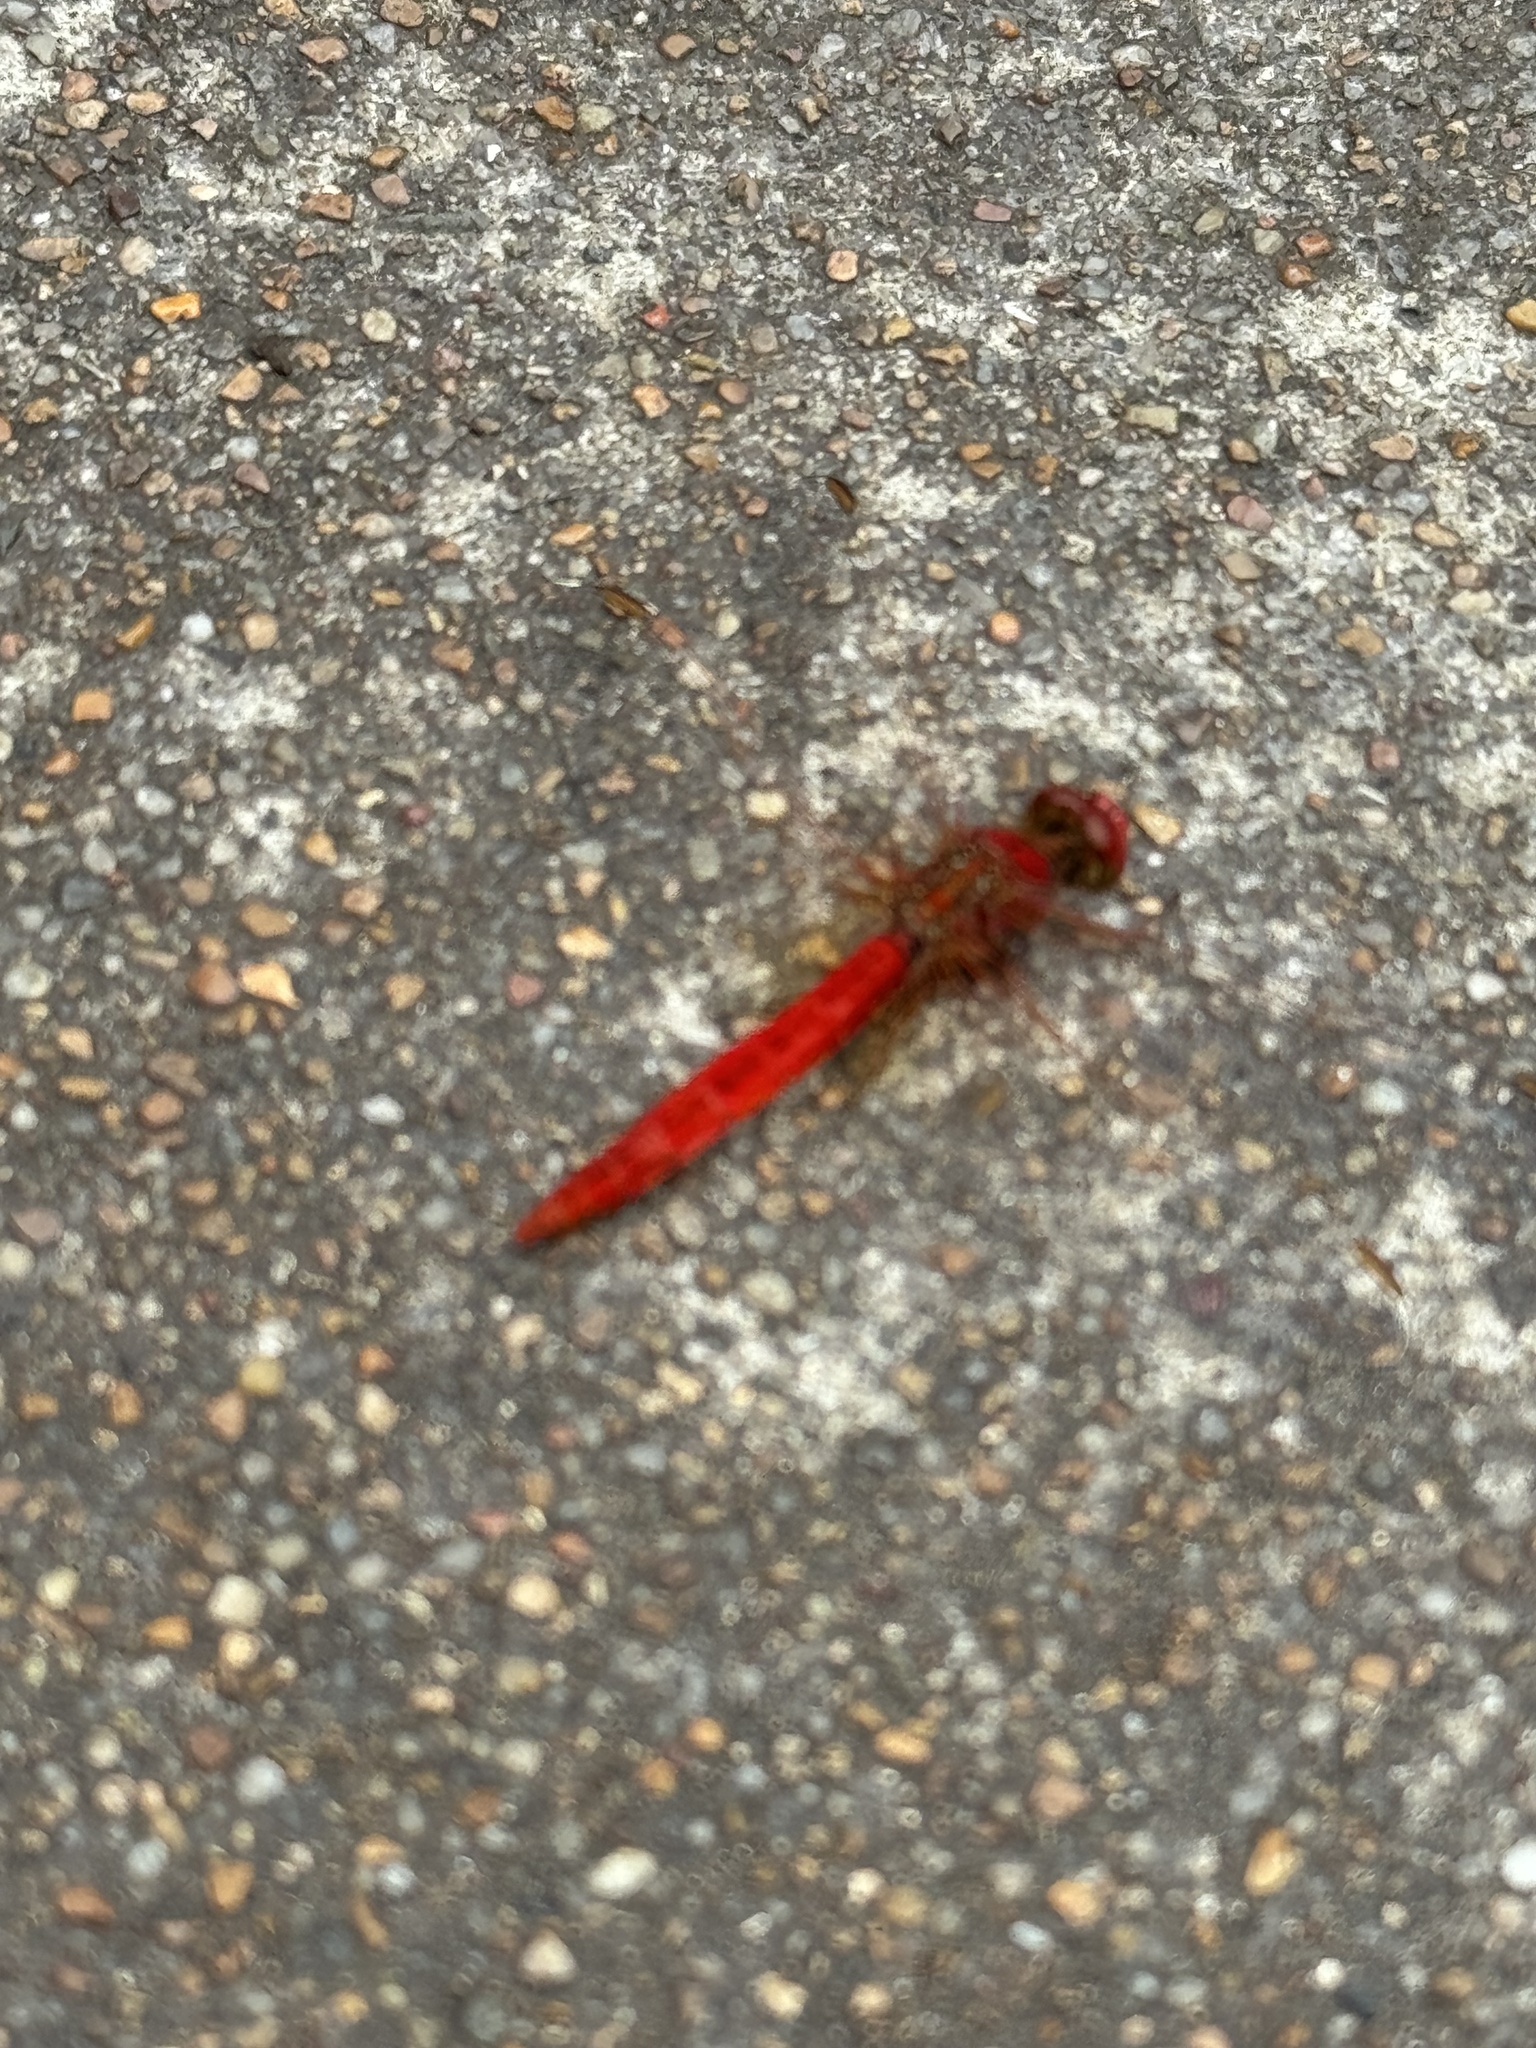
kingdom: Animalia
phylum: Arthropoda
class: Insecta
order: Odonata
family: Libellulidae
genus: Diplacodes
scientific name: Diplacodes haematodes
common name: Scarlet percher
